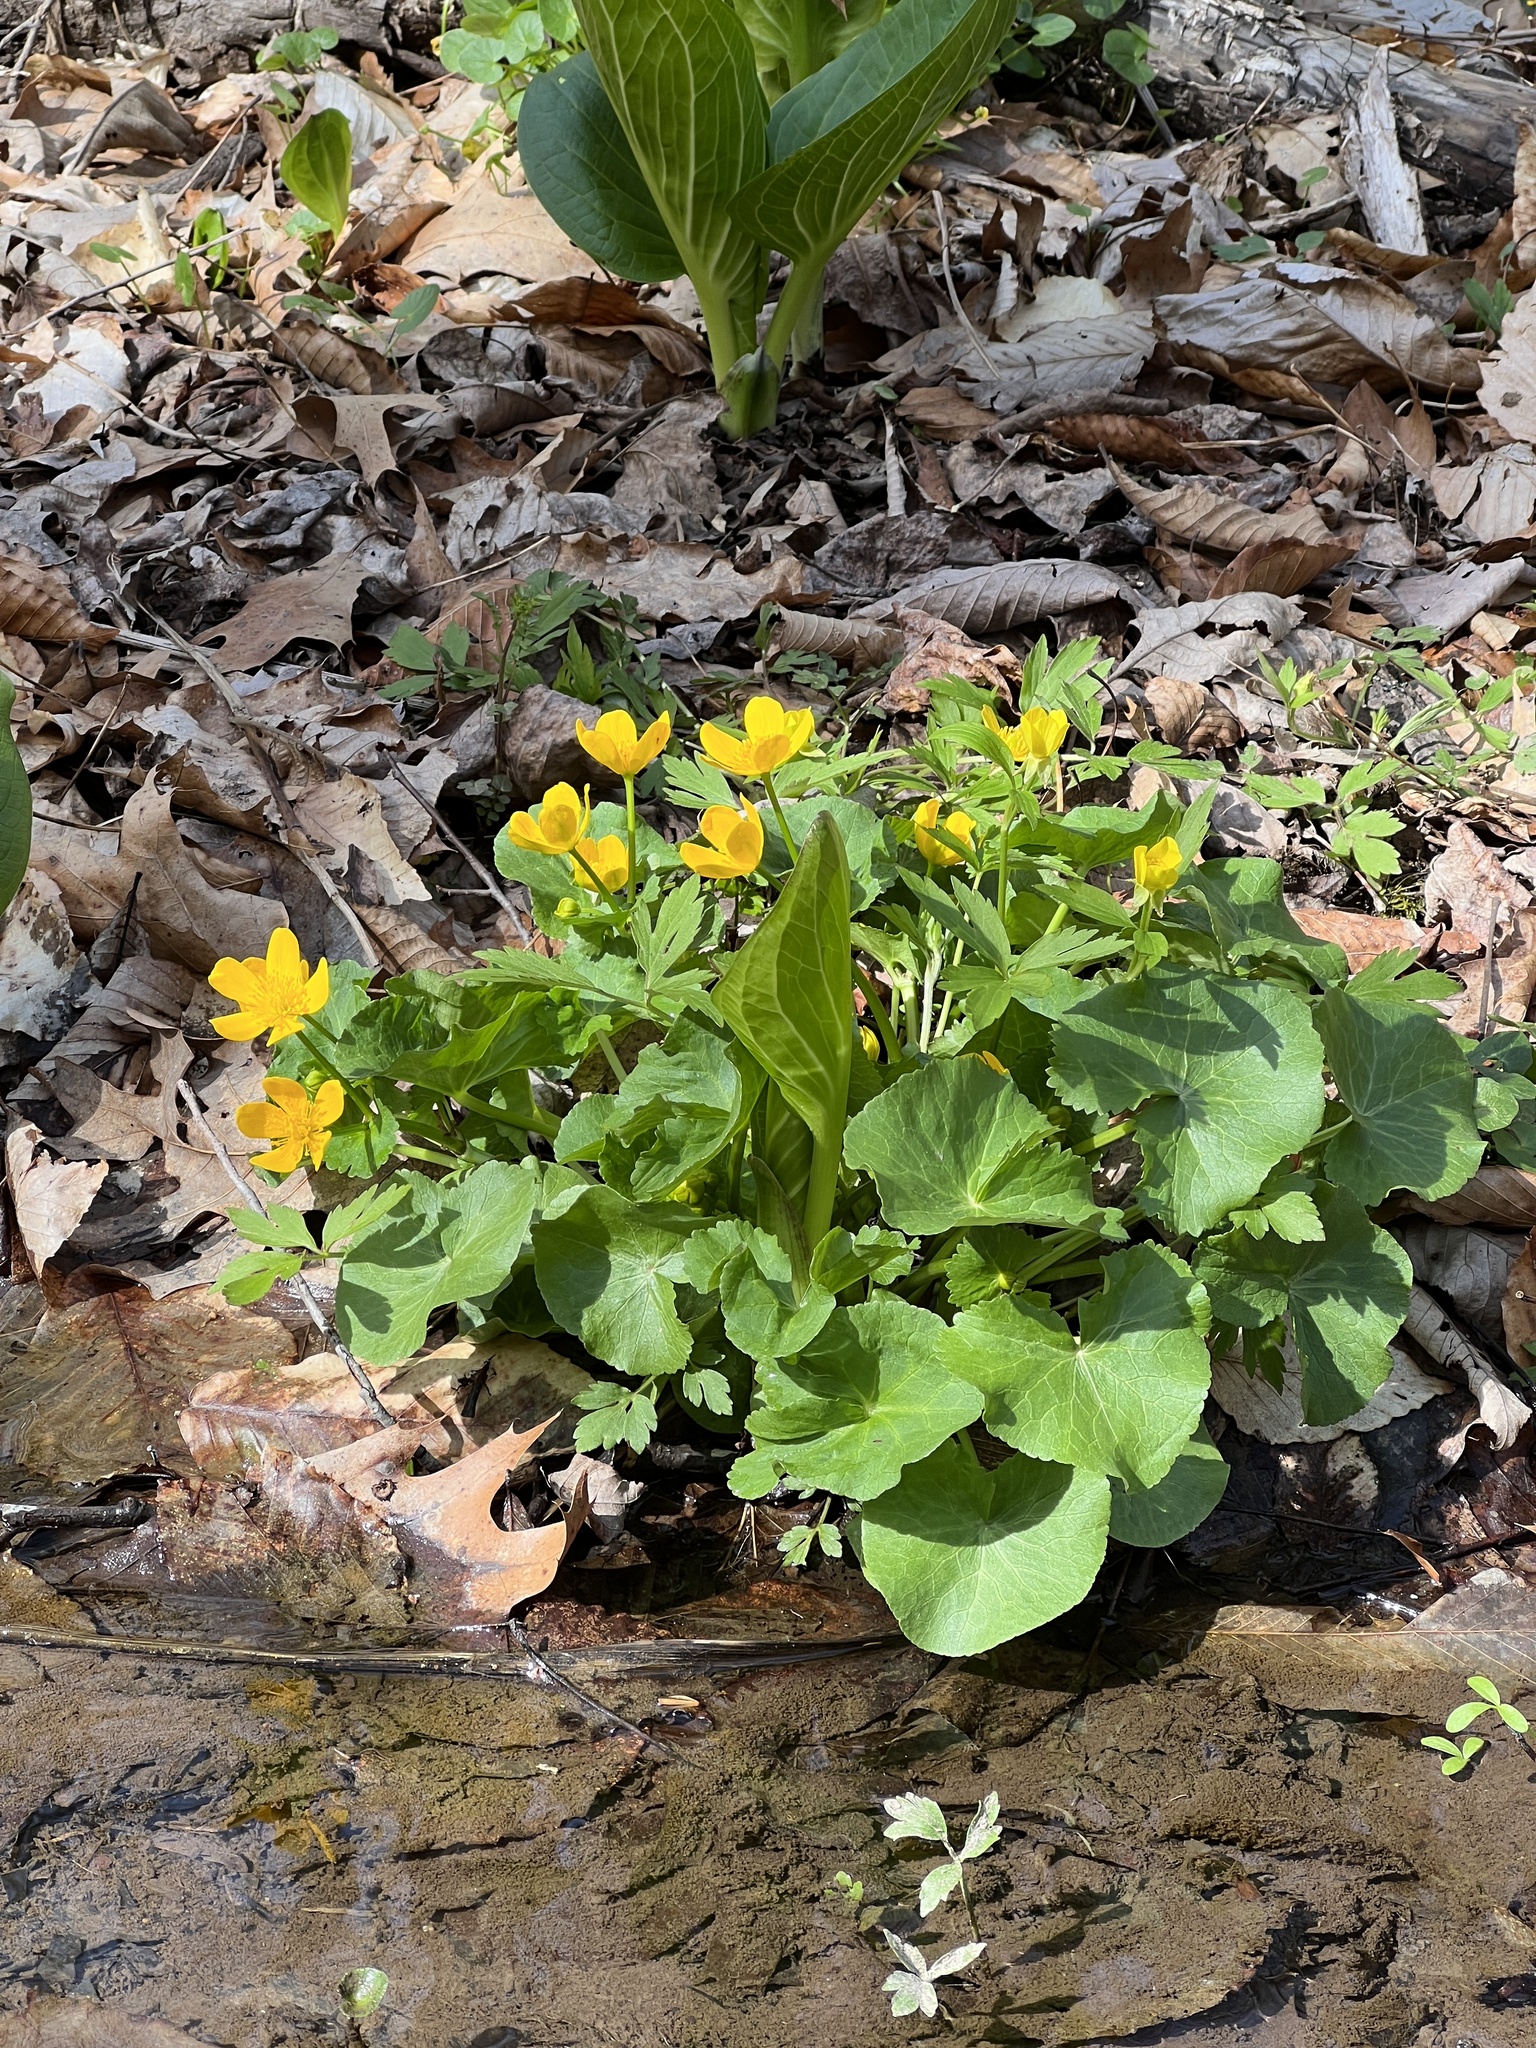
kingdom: Plantae
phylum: Tracheophyta
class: Magnoliopsida
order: Ranunculales
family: Ranunculaceae
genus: Caltha
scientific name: Caltha palustris
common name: Marsh marigold
